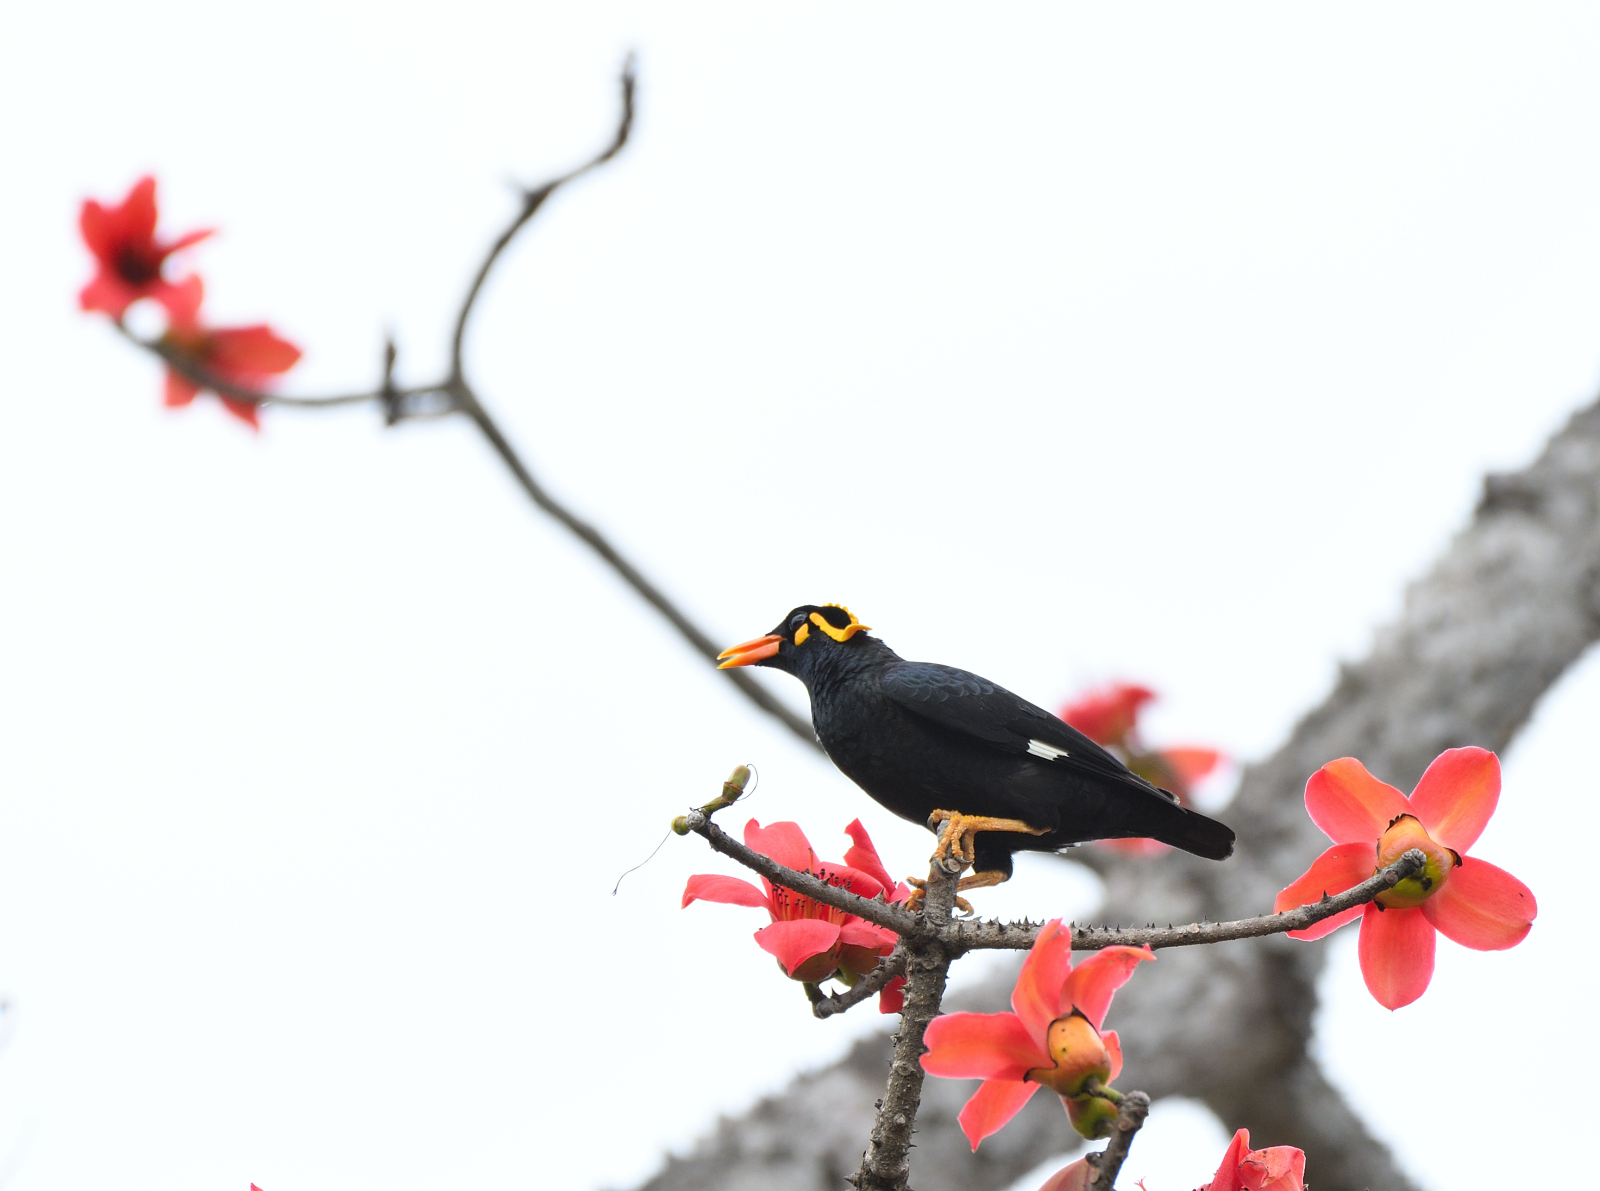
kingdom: Animalia
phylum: Chordata
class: Aves
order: Passeriformes
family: Sturnidae
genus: Gracula
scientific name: Gracula indica
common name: Southern hill myna
